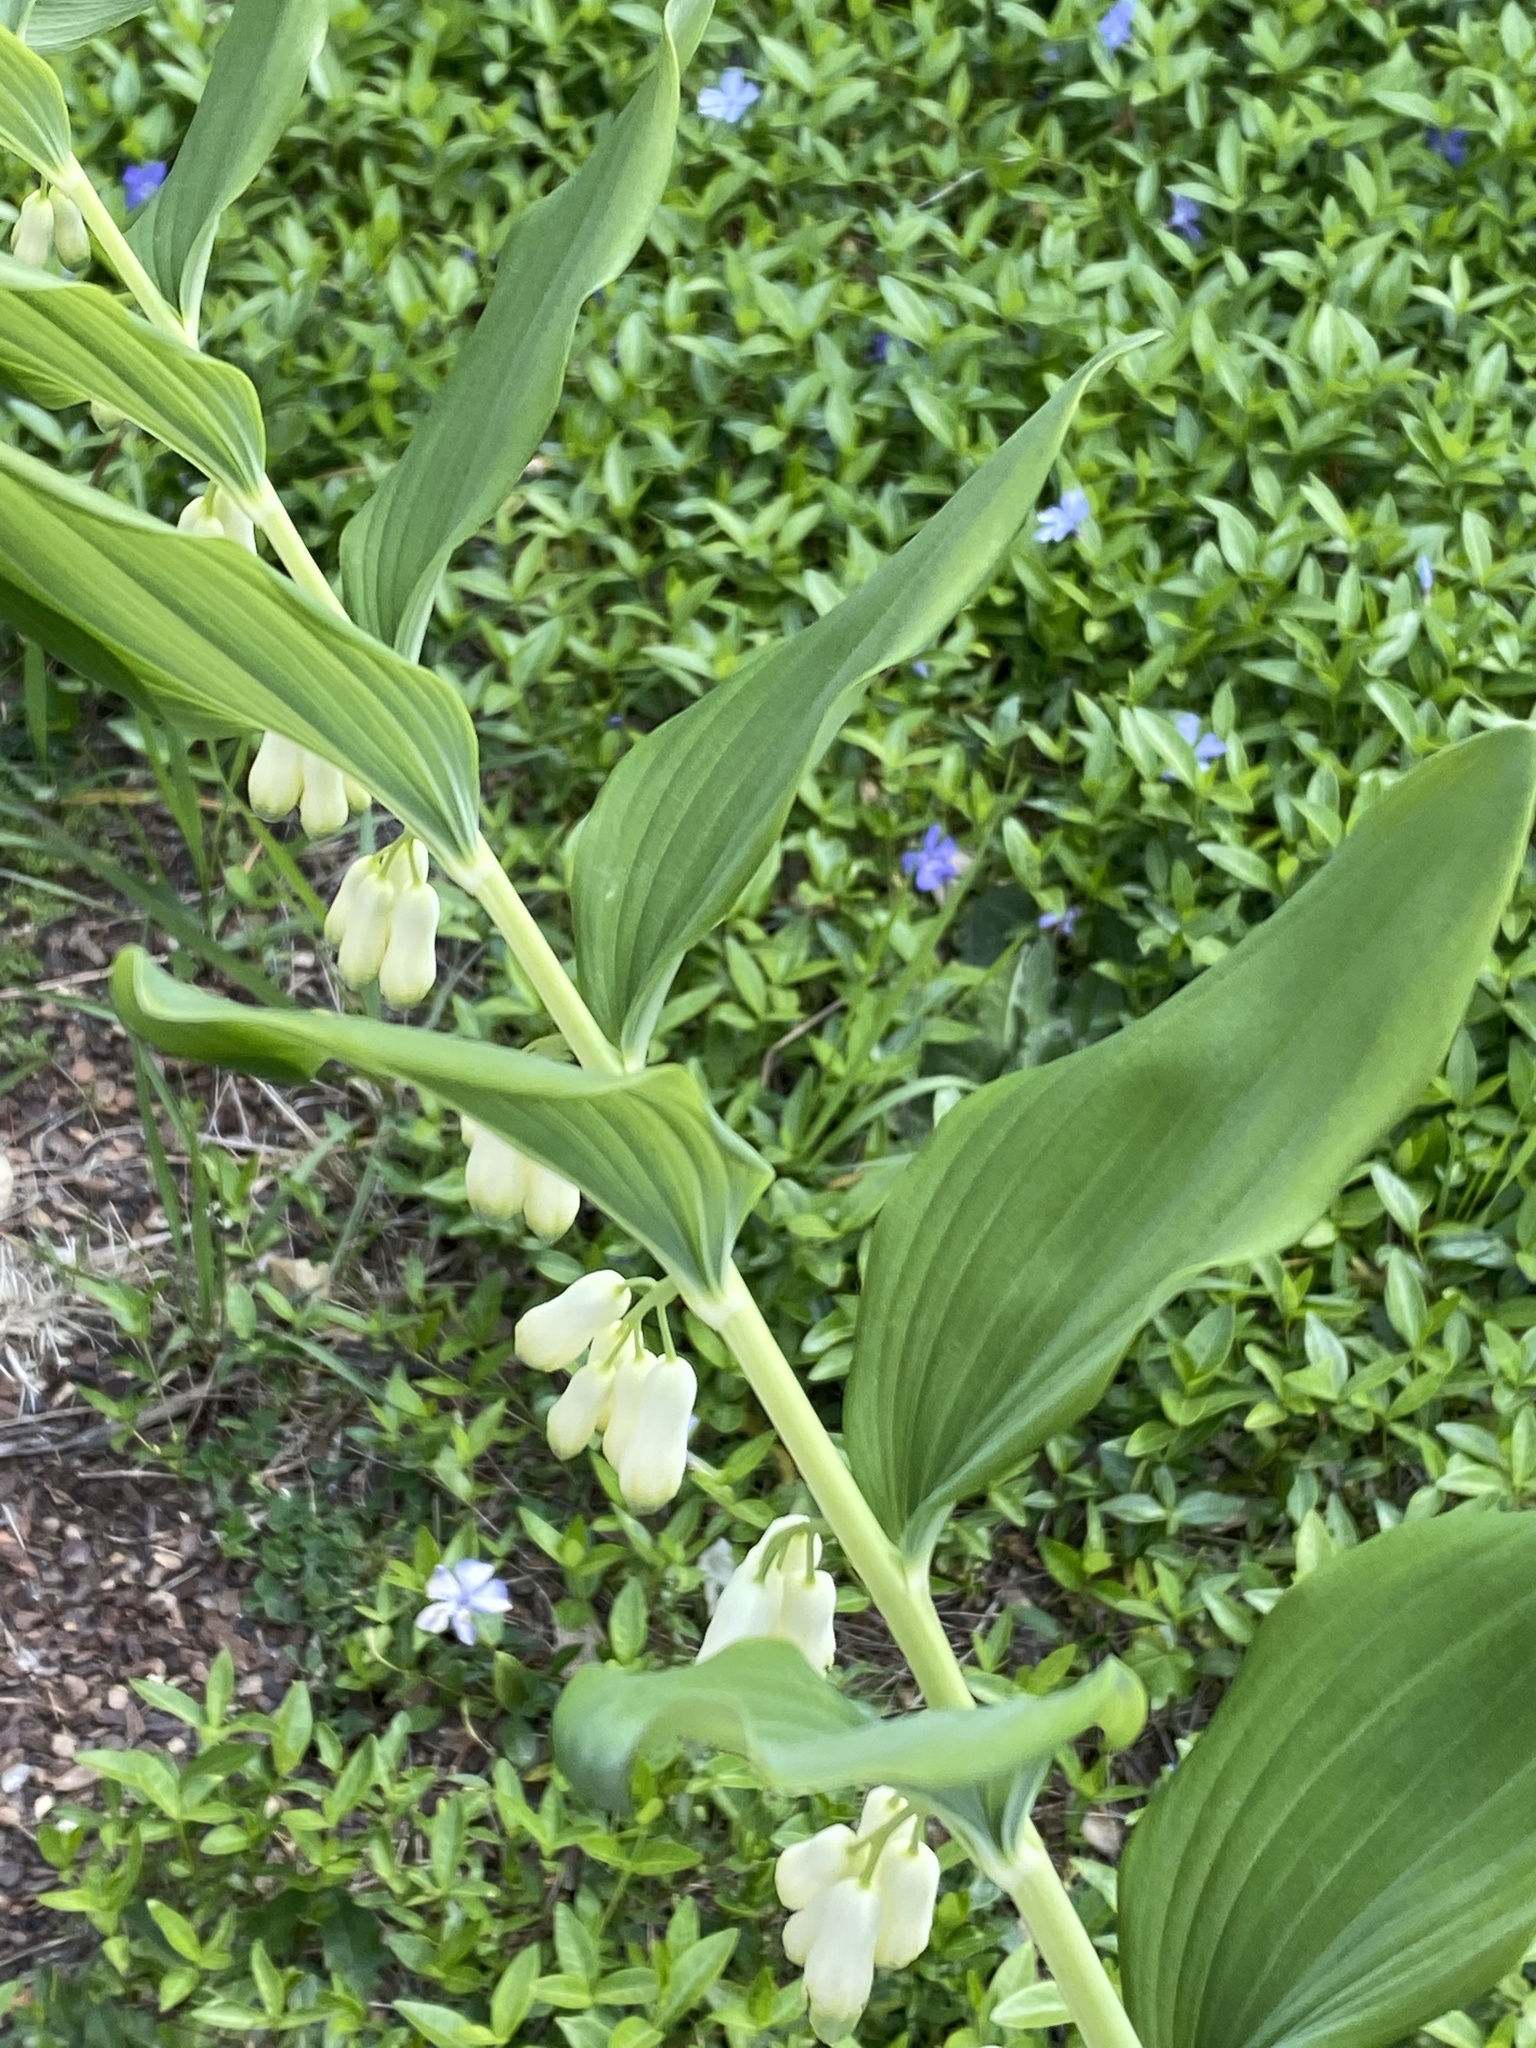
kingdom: Plantae
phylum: Tracheophyta
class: Liliopsida
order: Asparagales
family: Asparagaceae
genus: Polygonatum
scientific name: Polygonatum multiflorum
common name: Solomon's-seal
